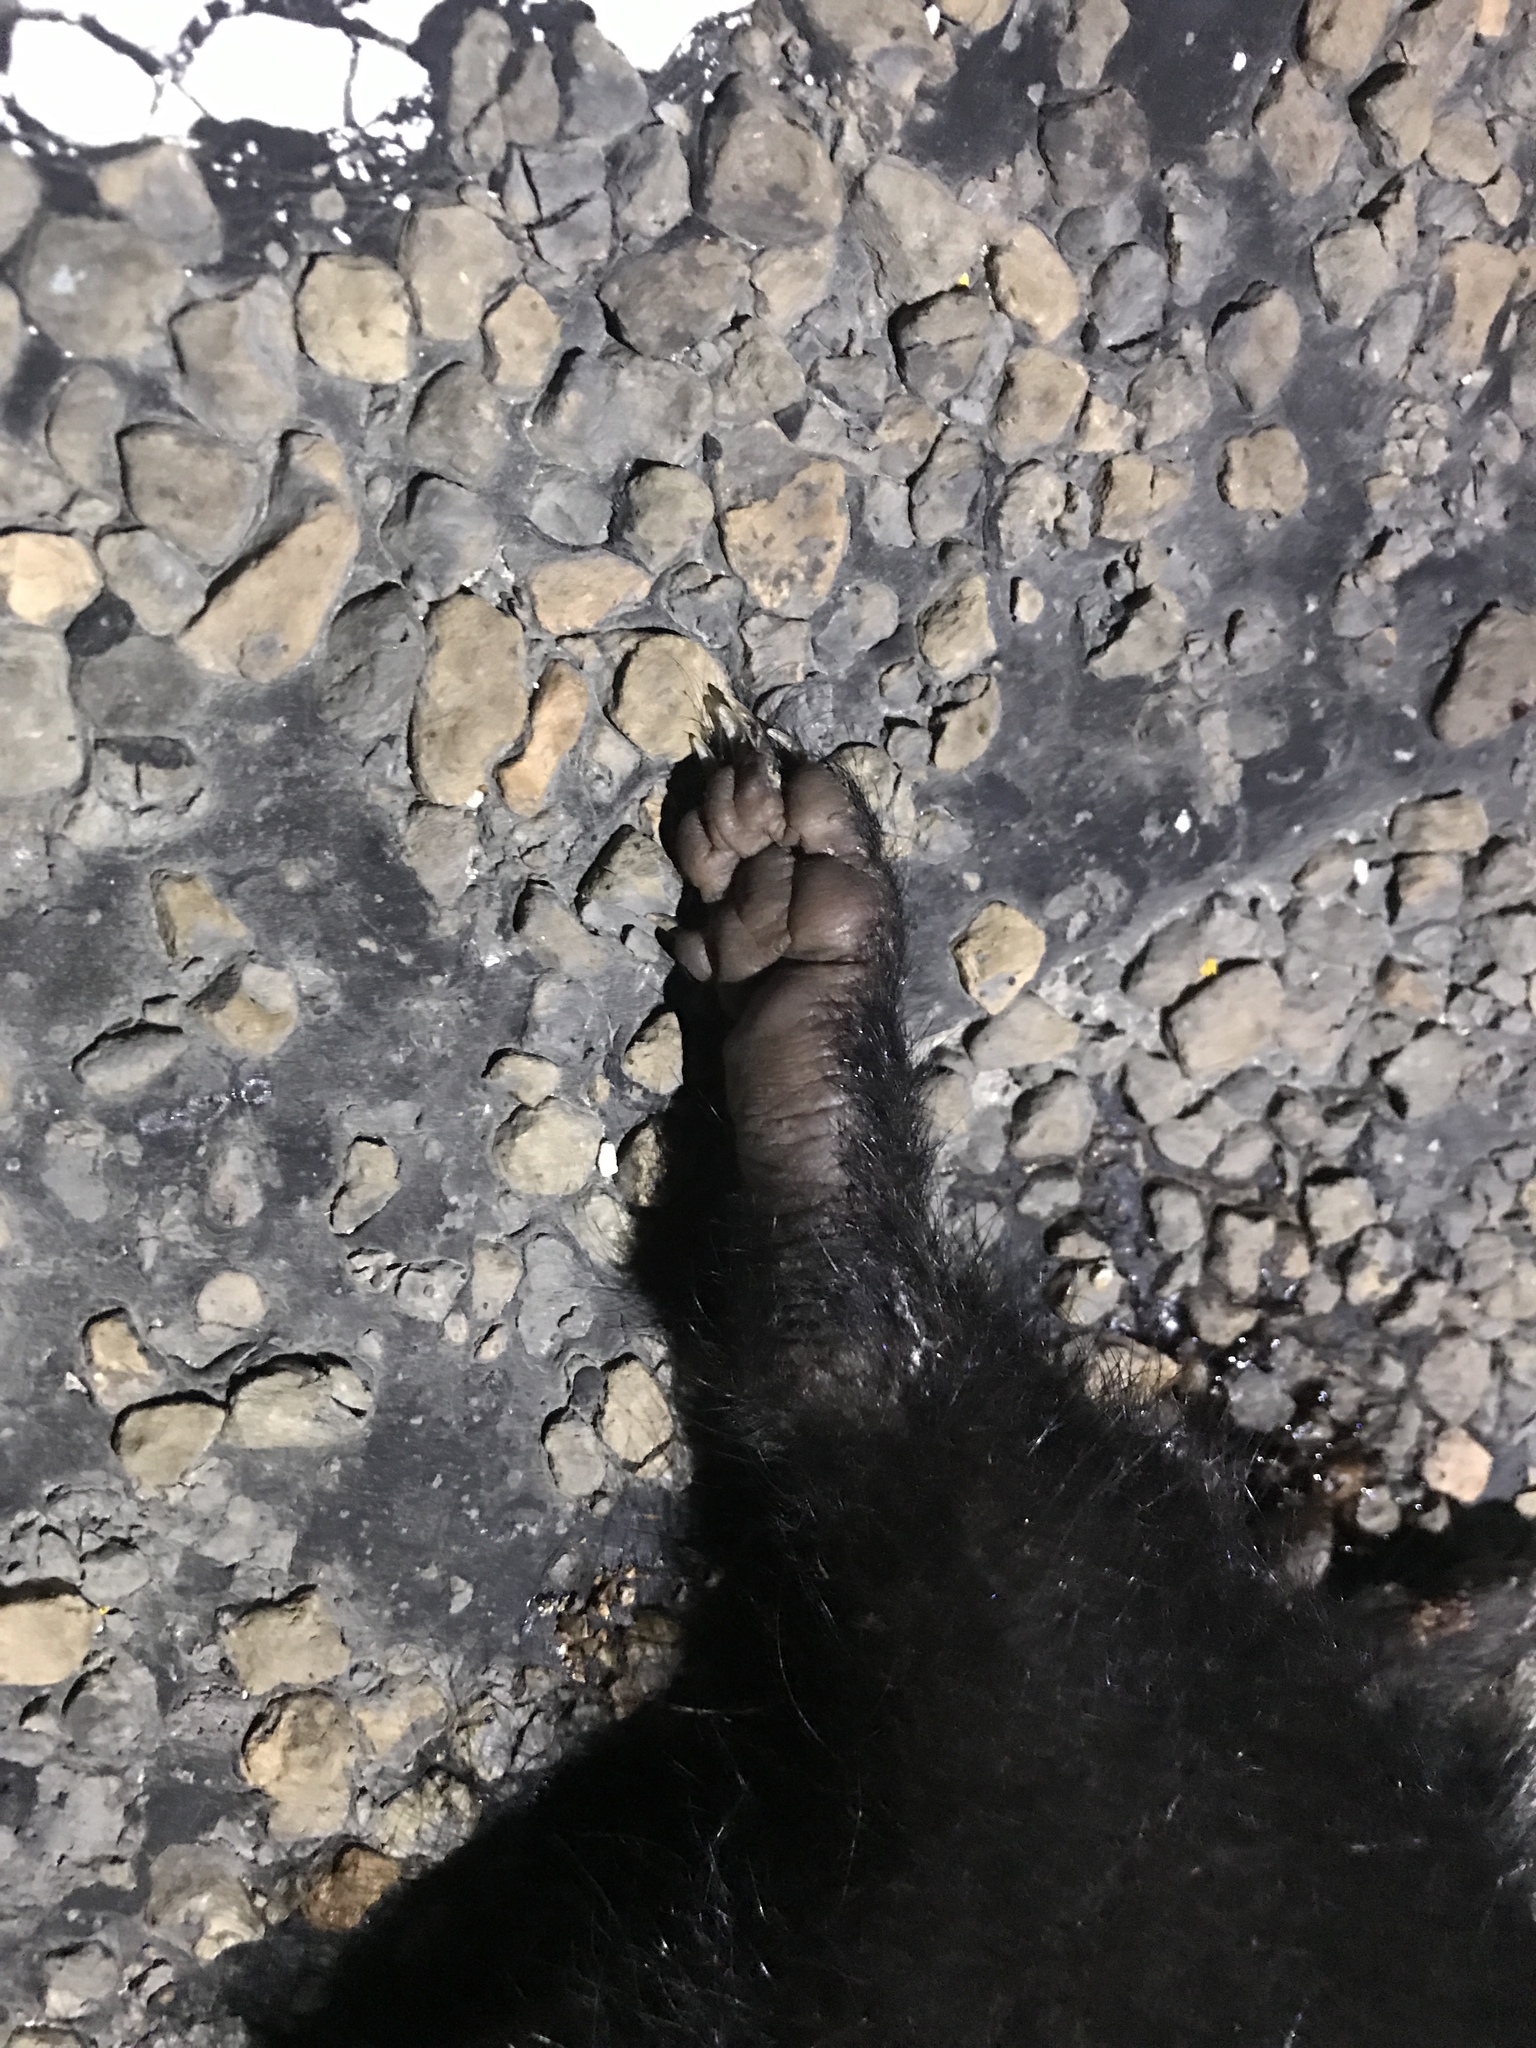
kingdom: Animalia
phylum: Chordata
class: Mammalia
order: Carnivora
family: Mephitidae
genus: Mephitis
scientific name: Mephitis mephitis
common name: Striped skunk
